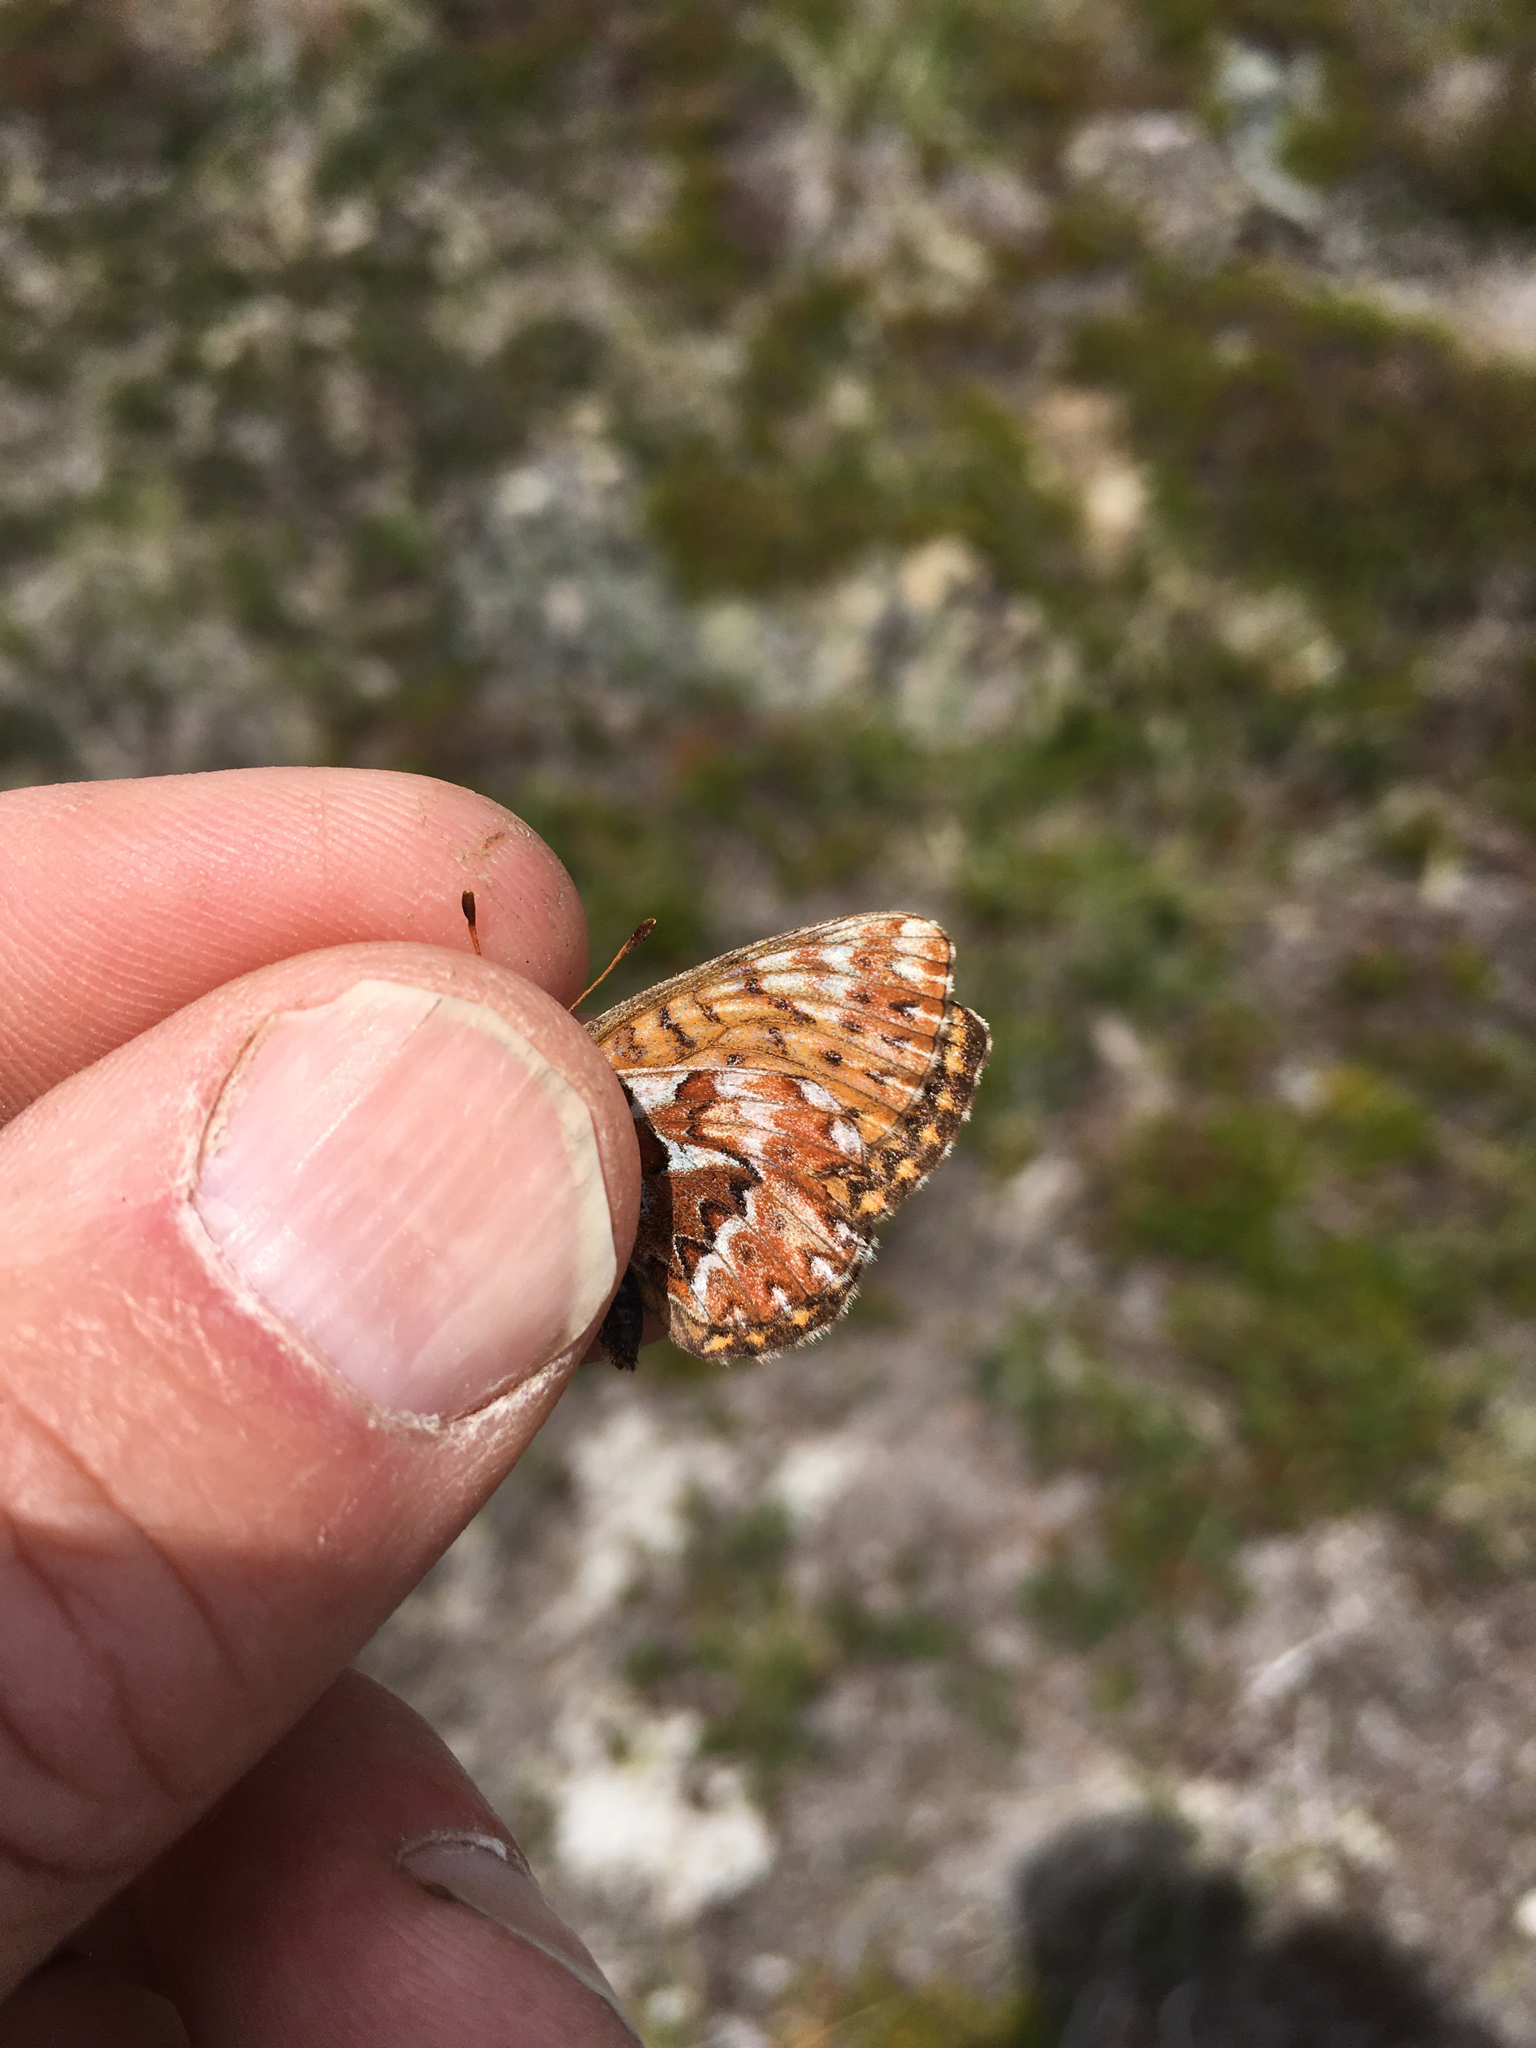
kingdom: Animalia
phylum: Arthropoda
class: Insecta
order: Lepidoptera
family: Nymphalidae
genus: Boloria
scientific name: Boloria freija
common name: Freija fritillary
